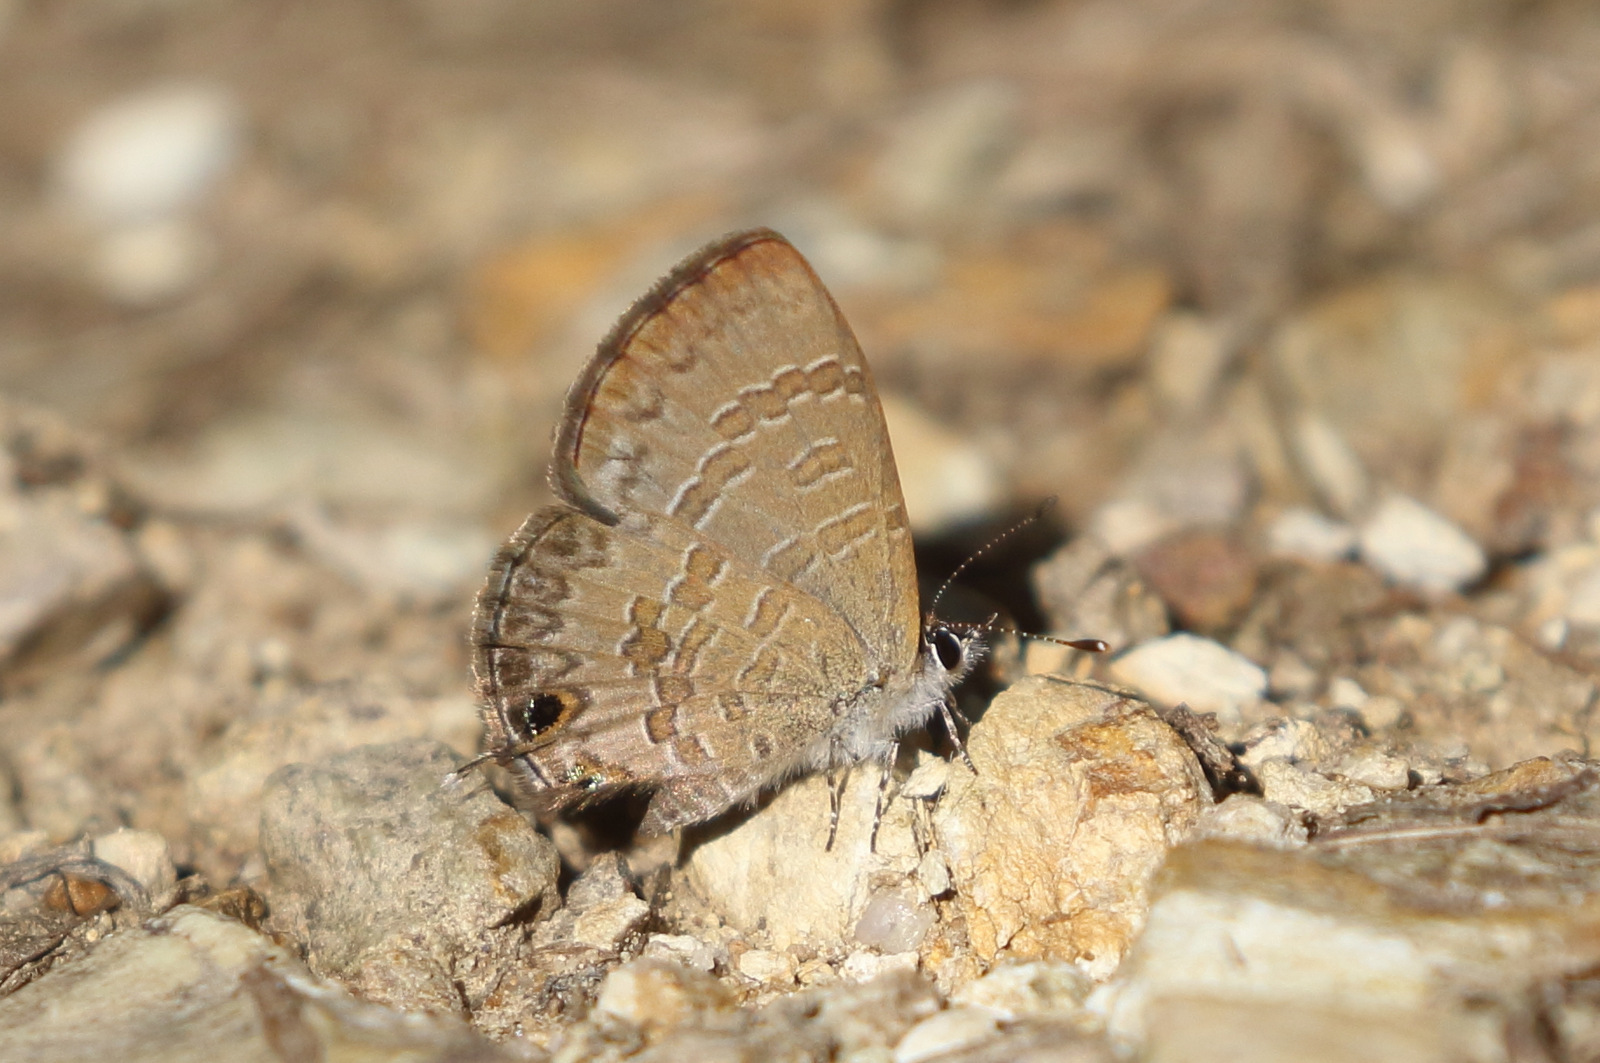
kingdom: Animalia
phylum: Arthropoda
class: Insecta
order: Lepidoptera
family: Lycaenidae
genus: Prosotas
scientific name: Prosotas felderi
